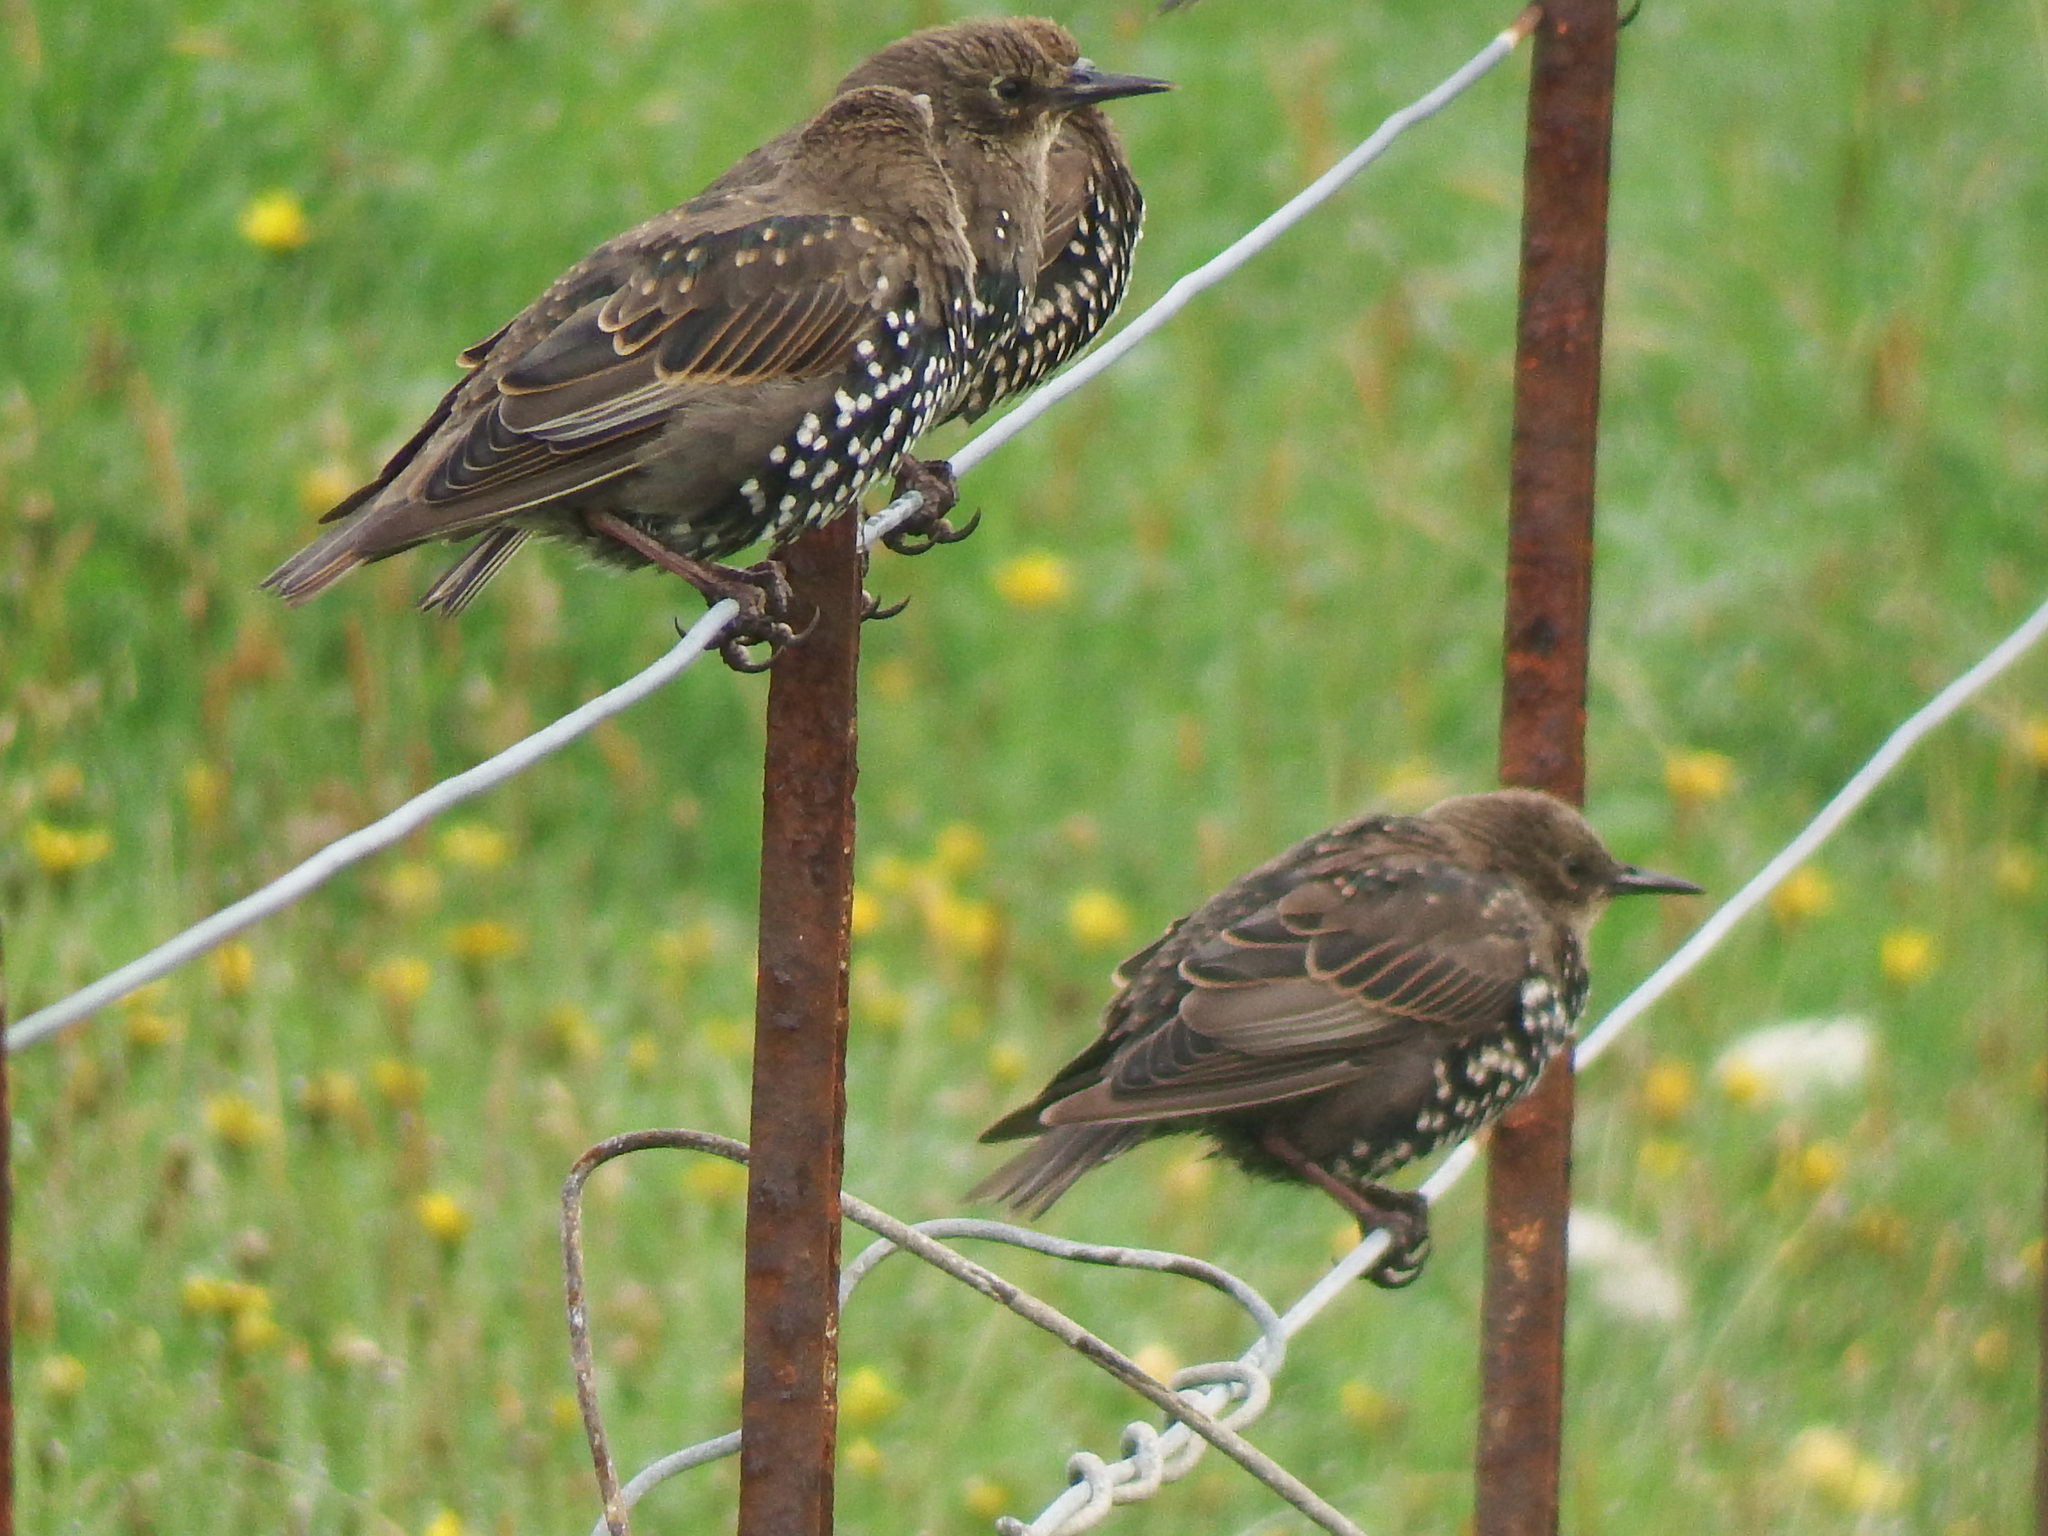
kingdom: Animalia
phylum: Chordata
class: Aves
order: Passeriformes
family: Sturnidae
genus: Sturnus
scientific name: Sturnus vulgaris
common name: Common starling
